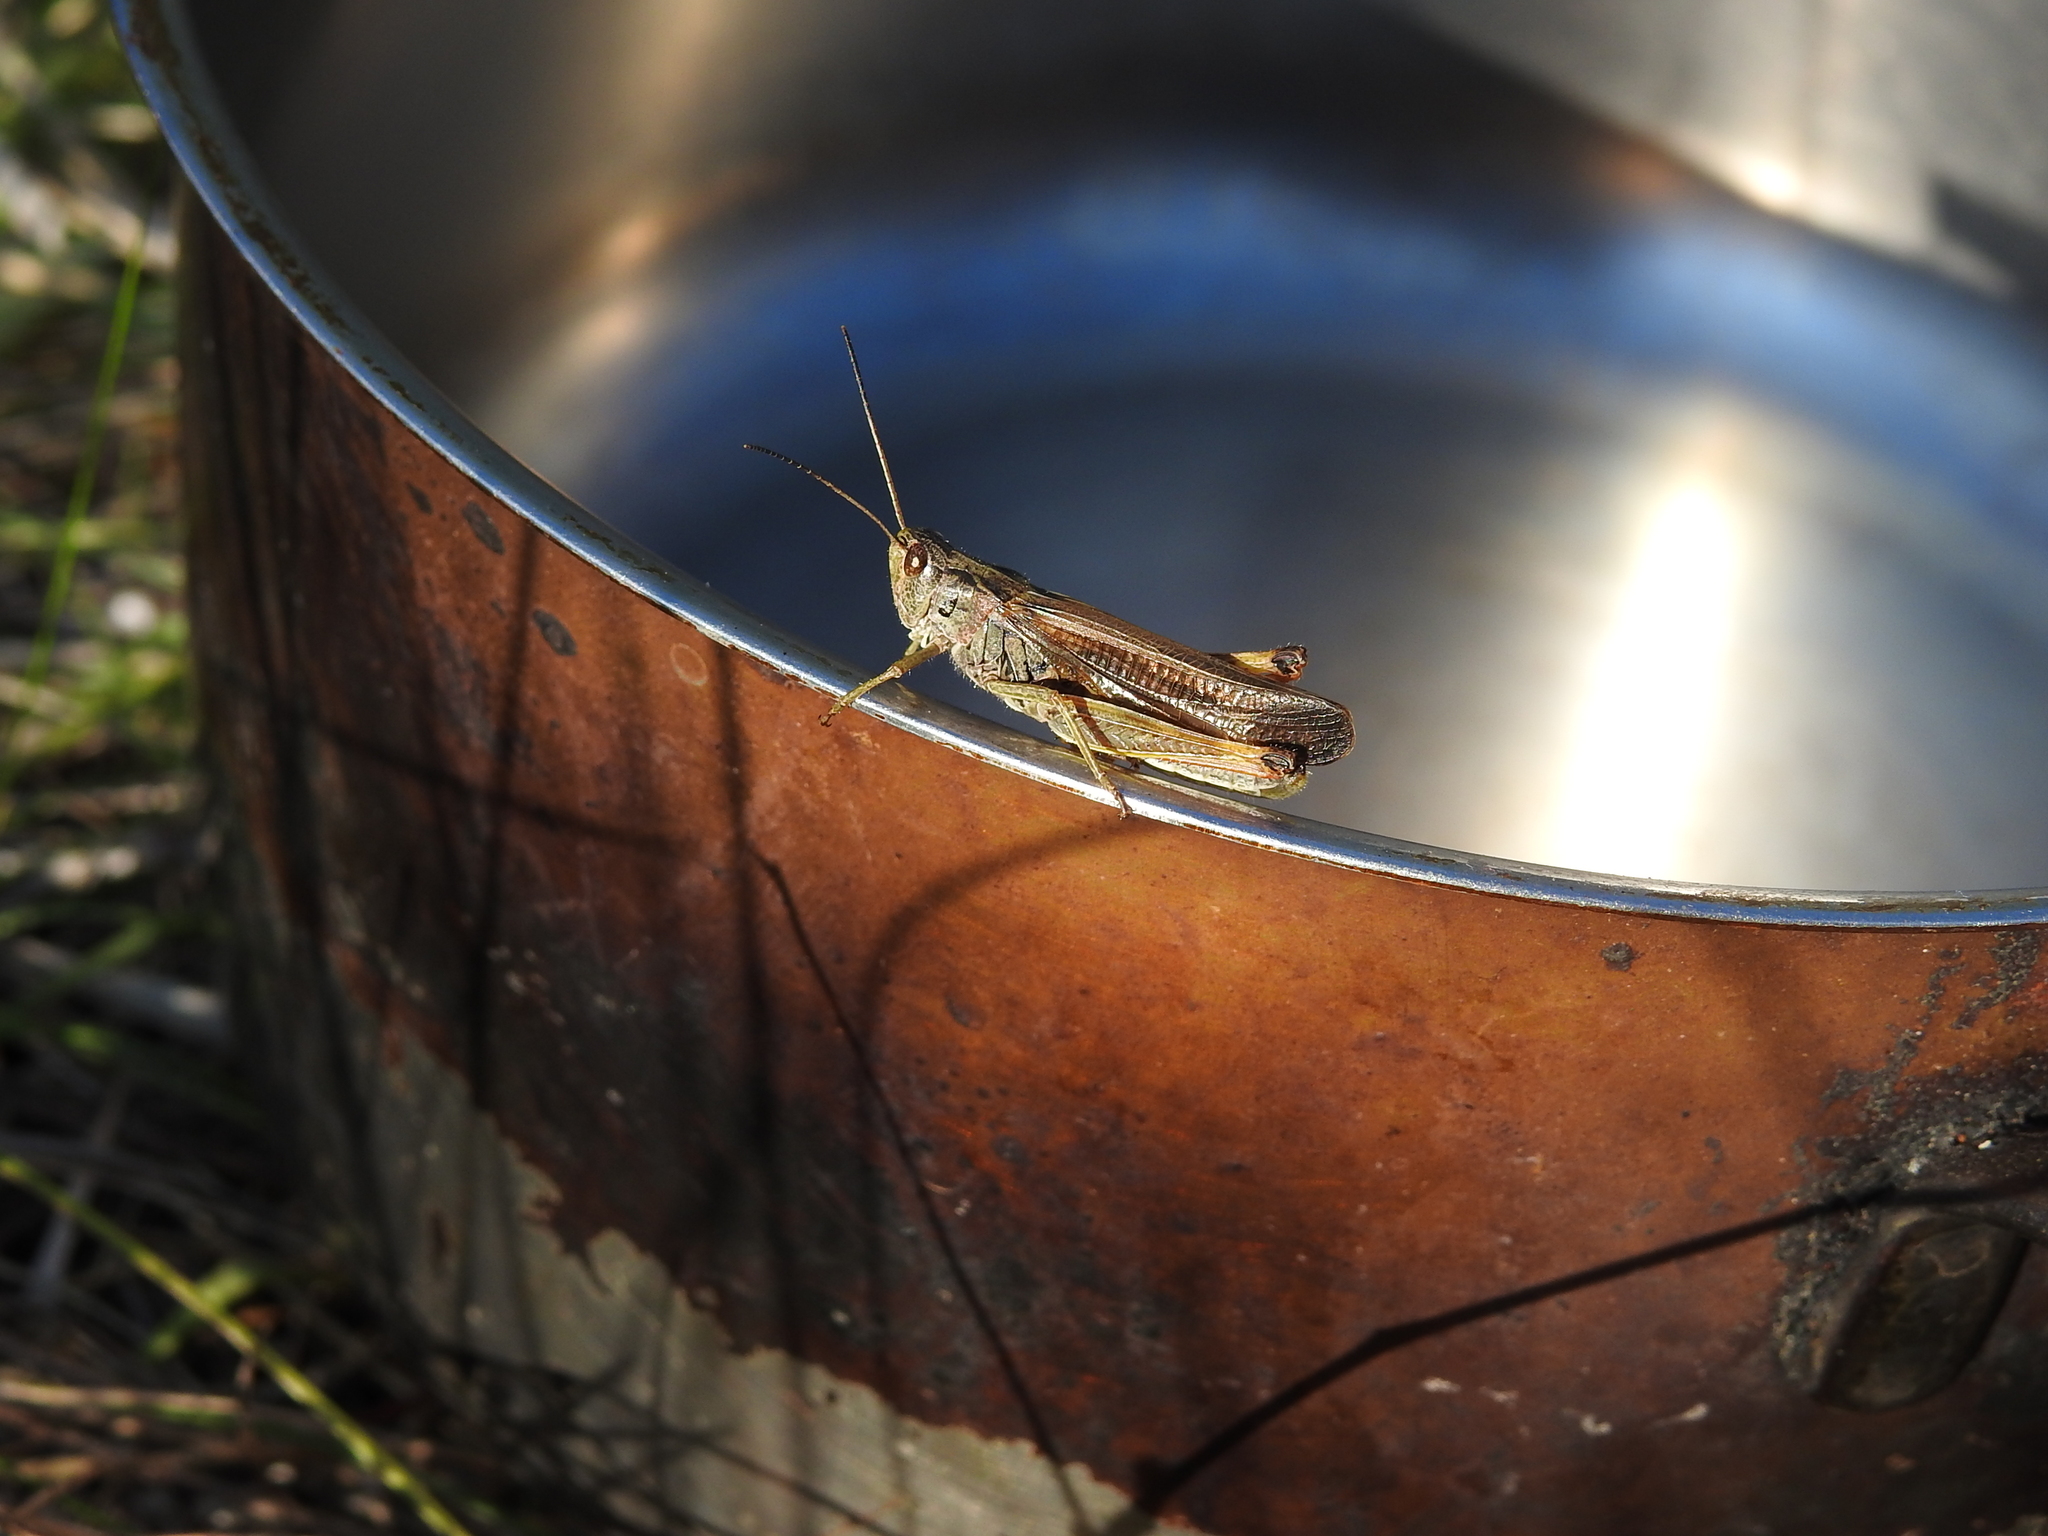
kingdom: Animalia
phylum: Arthropoda
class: Insecta
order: Orthoptera
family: Acrididae
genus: Stauroderus
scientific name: Stauroderus scalaris
